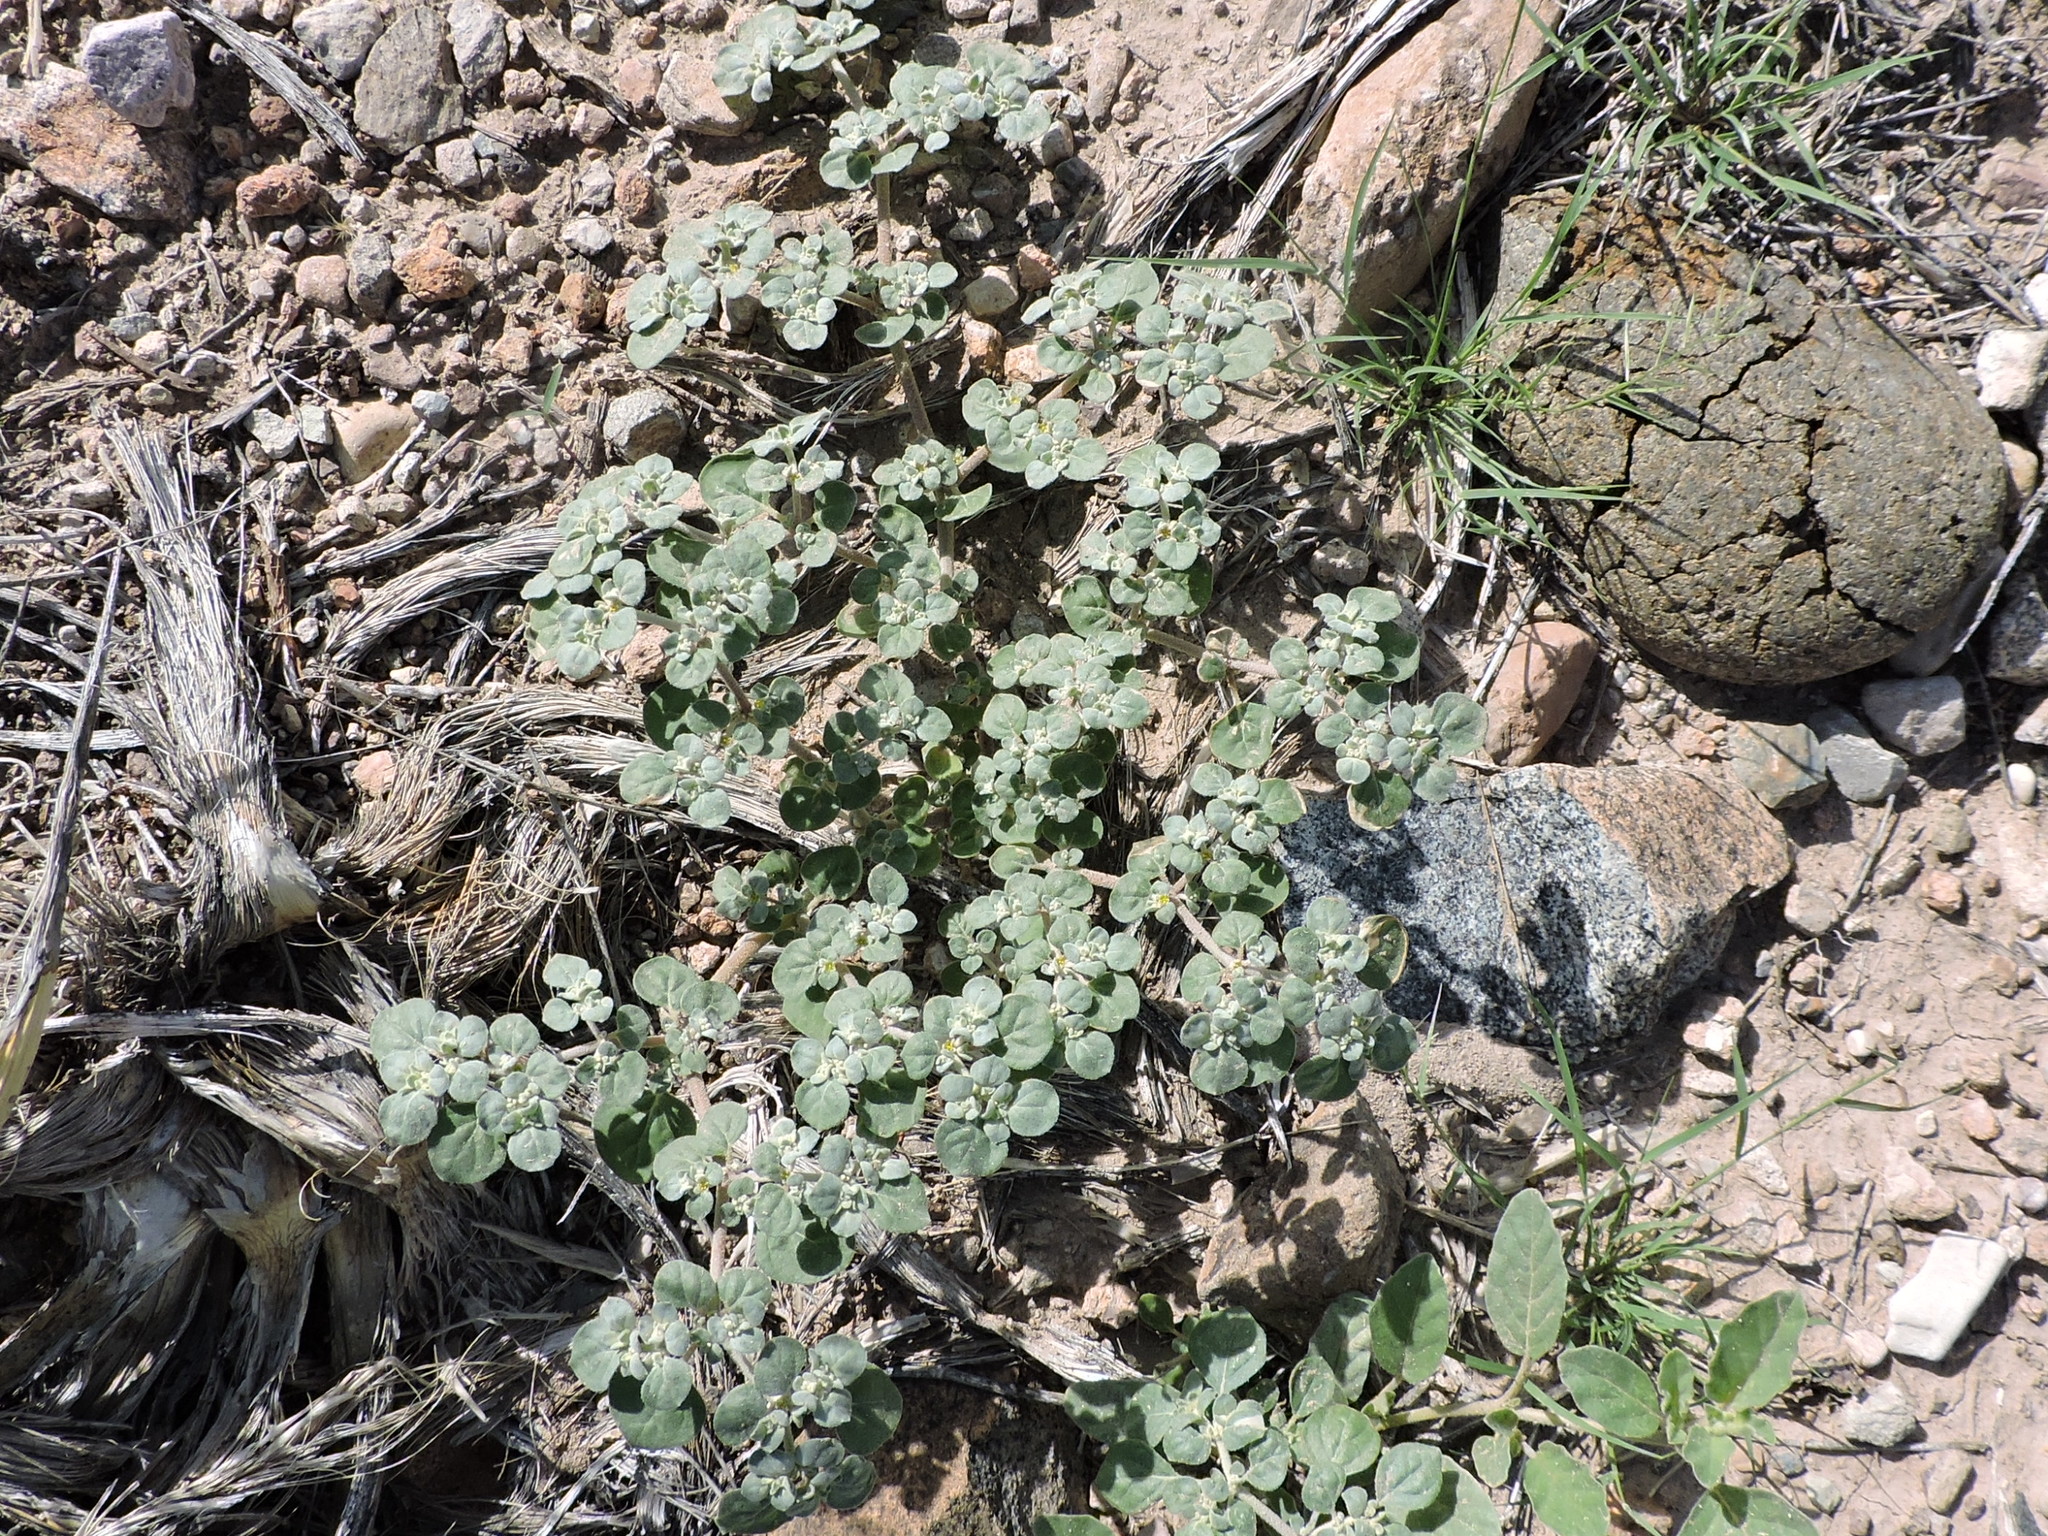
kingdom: Plantae
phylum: Tracheophyta
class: Magnoliopsida
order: Caryophyllales
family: Amaranthaceae
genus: Tidestromia
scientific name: Tidestromia suffruticosa
